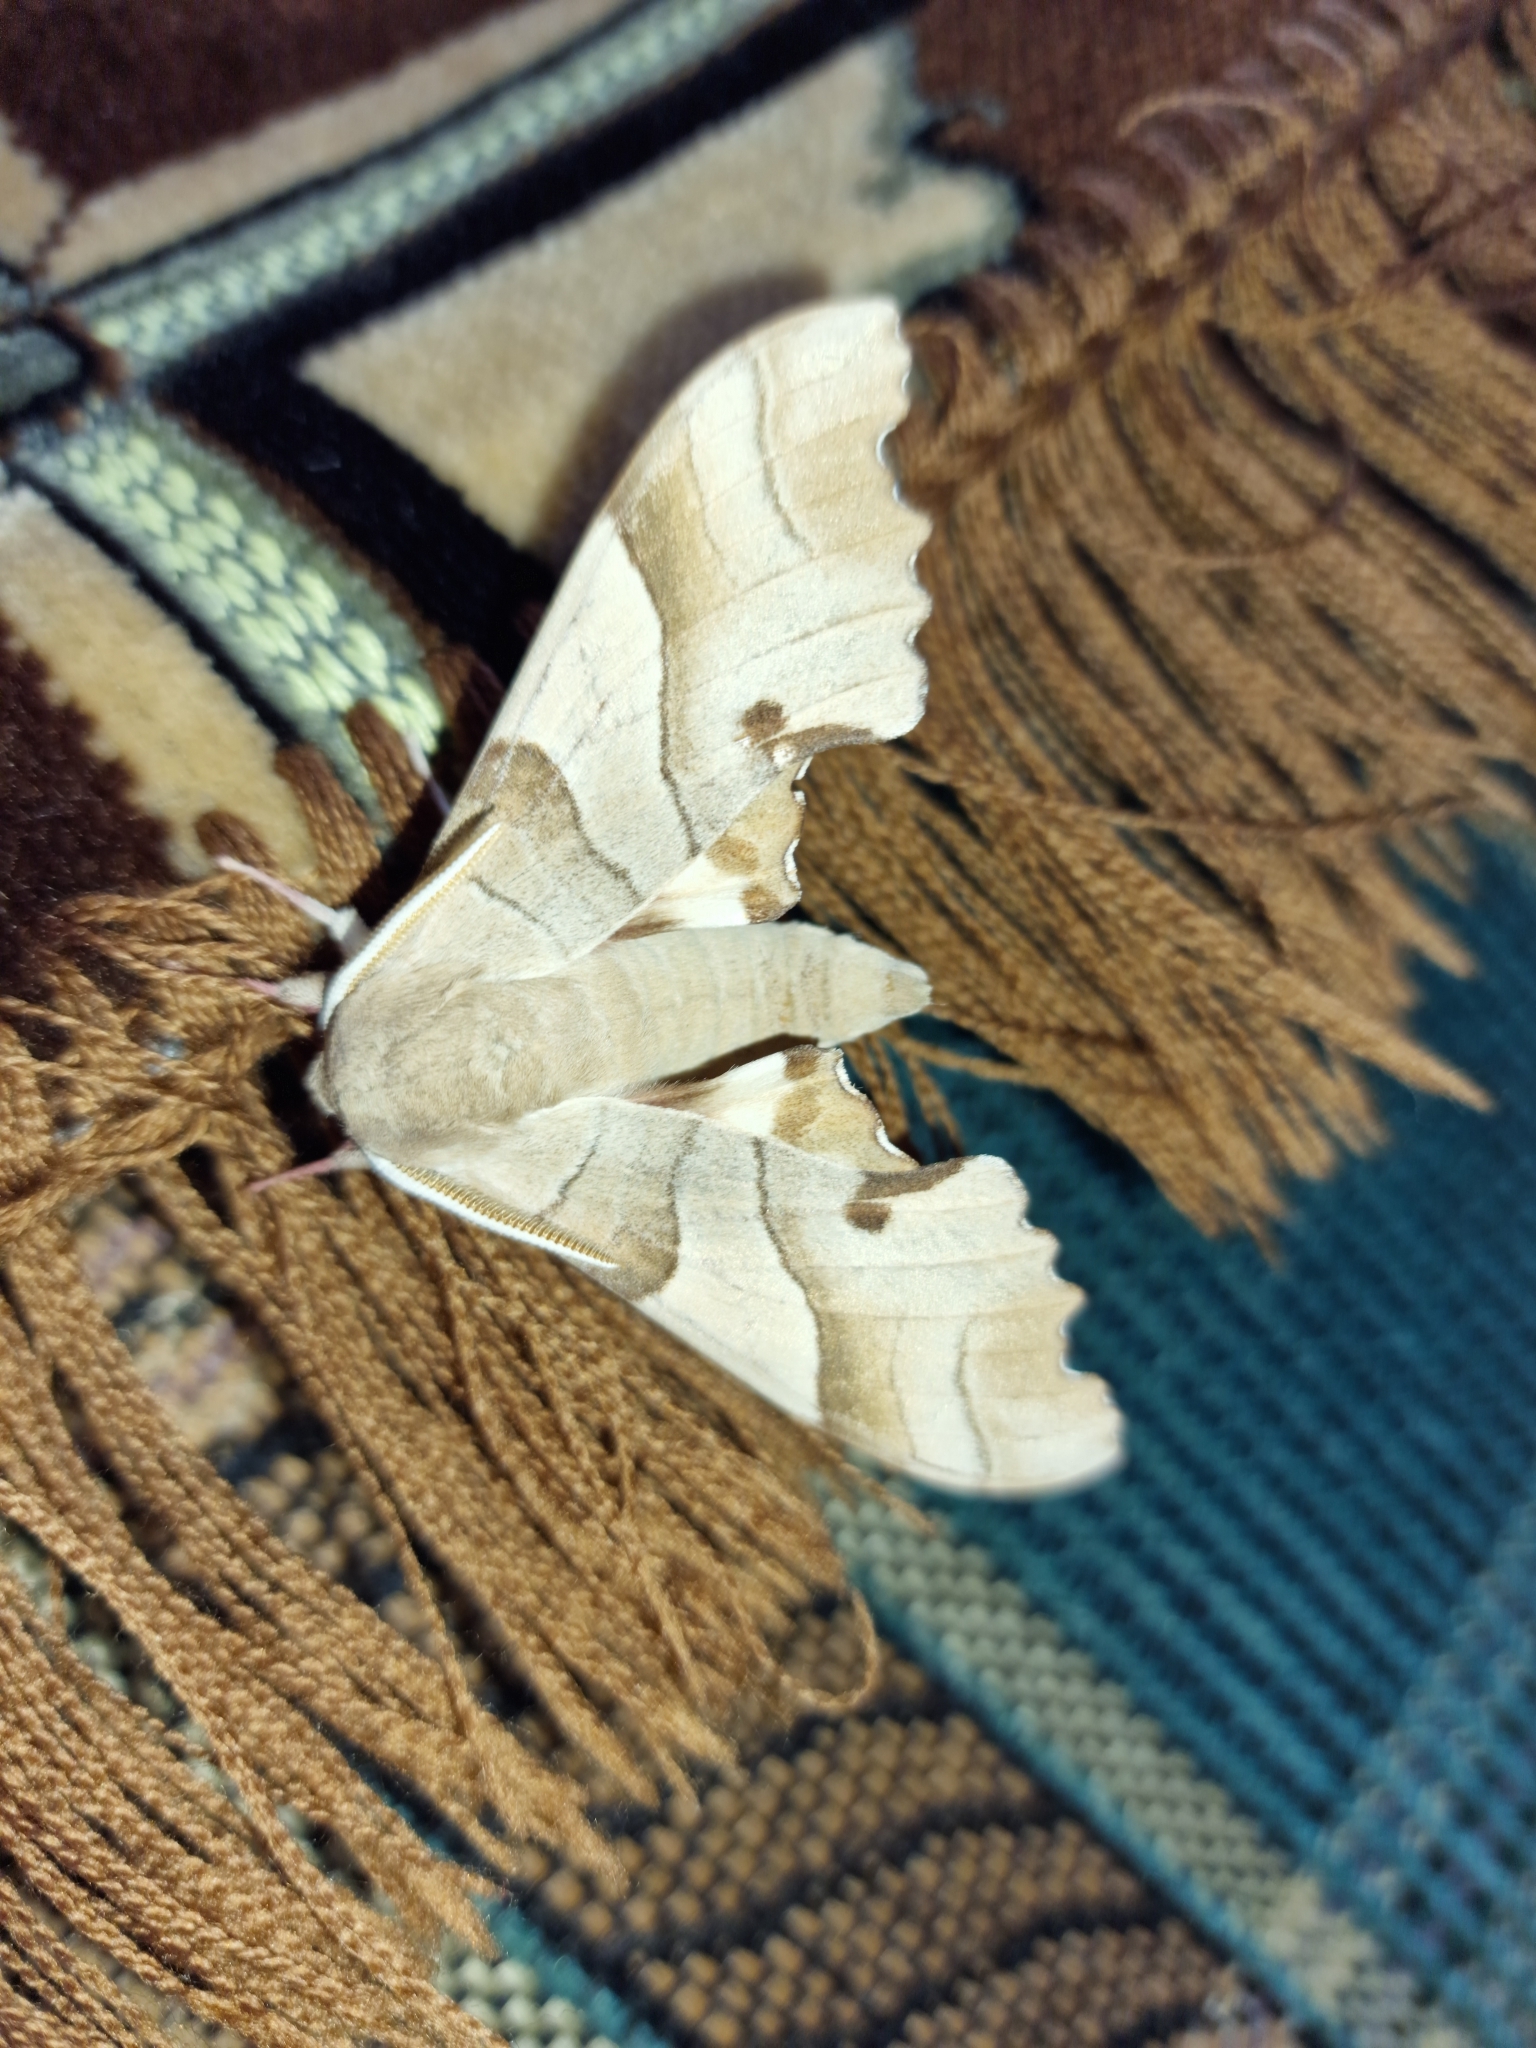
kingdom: Animalia
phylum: Arthropoda
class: Insecta
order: Lepidoptera
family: Sphingidae
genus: Marumba
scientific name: Marumba quercus
